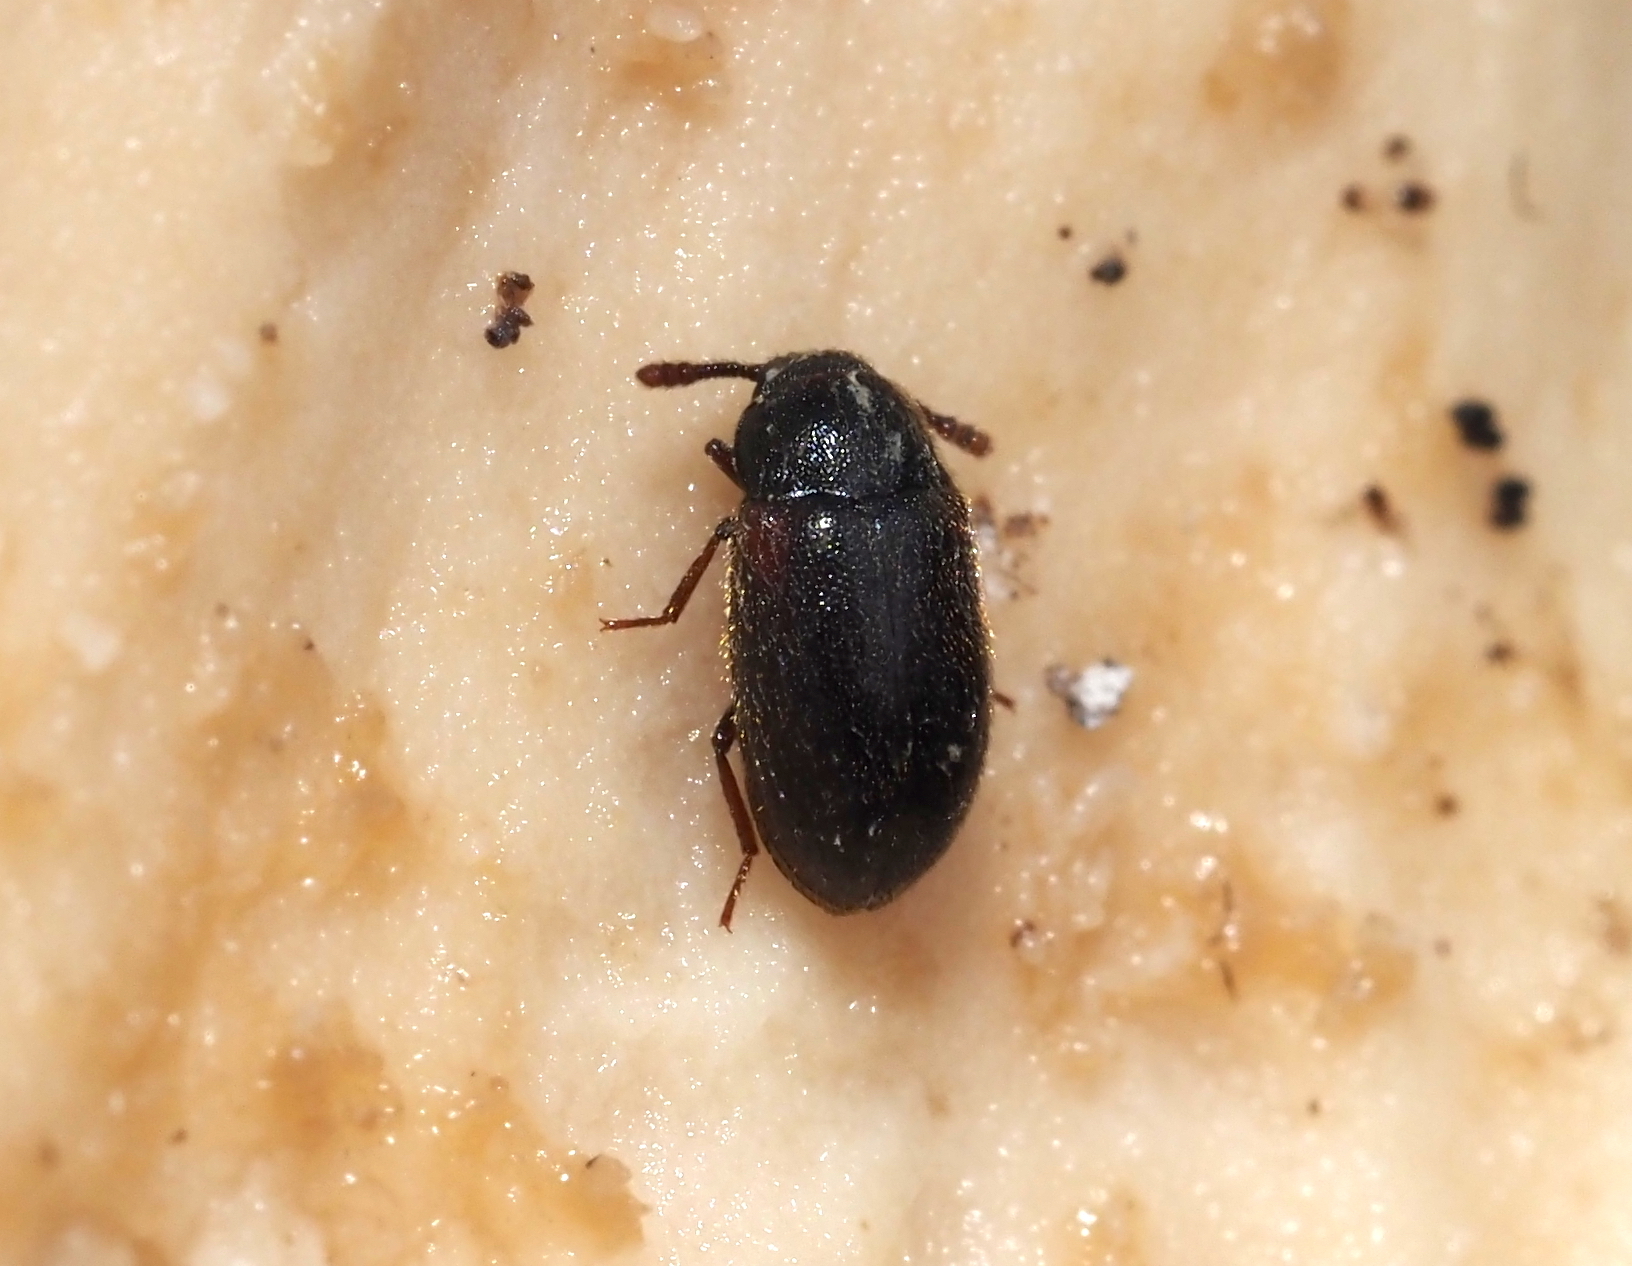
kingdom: Animalia
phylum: Arthropoda
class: Insecta
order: Coleoptera
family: Tetratomidae
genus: Pisenus
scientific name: Pisenus humeralis
